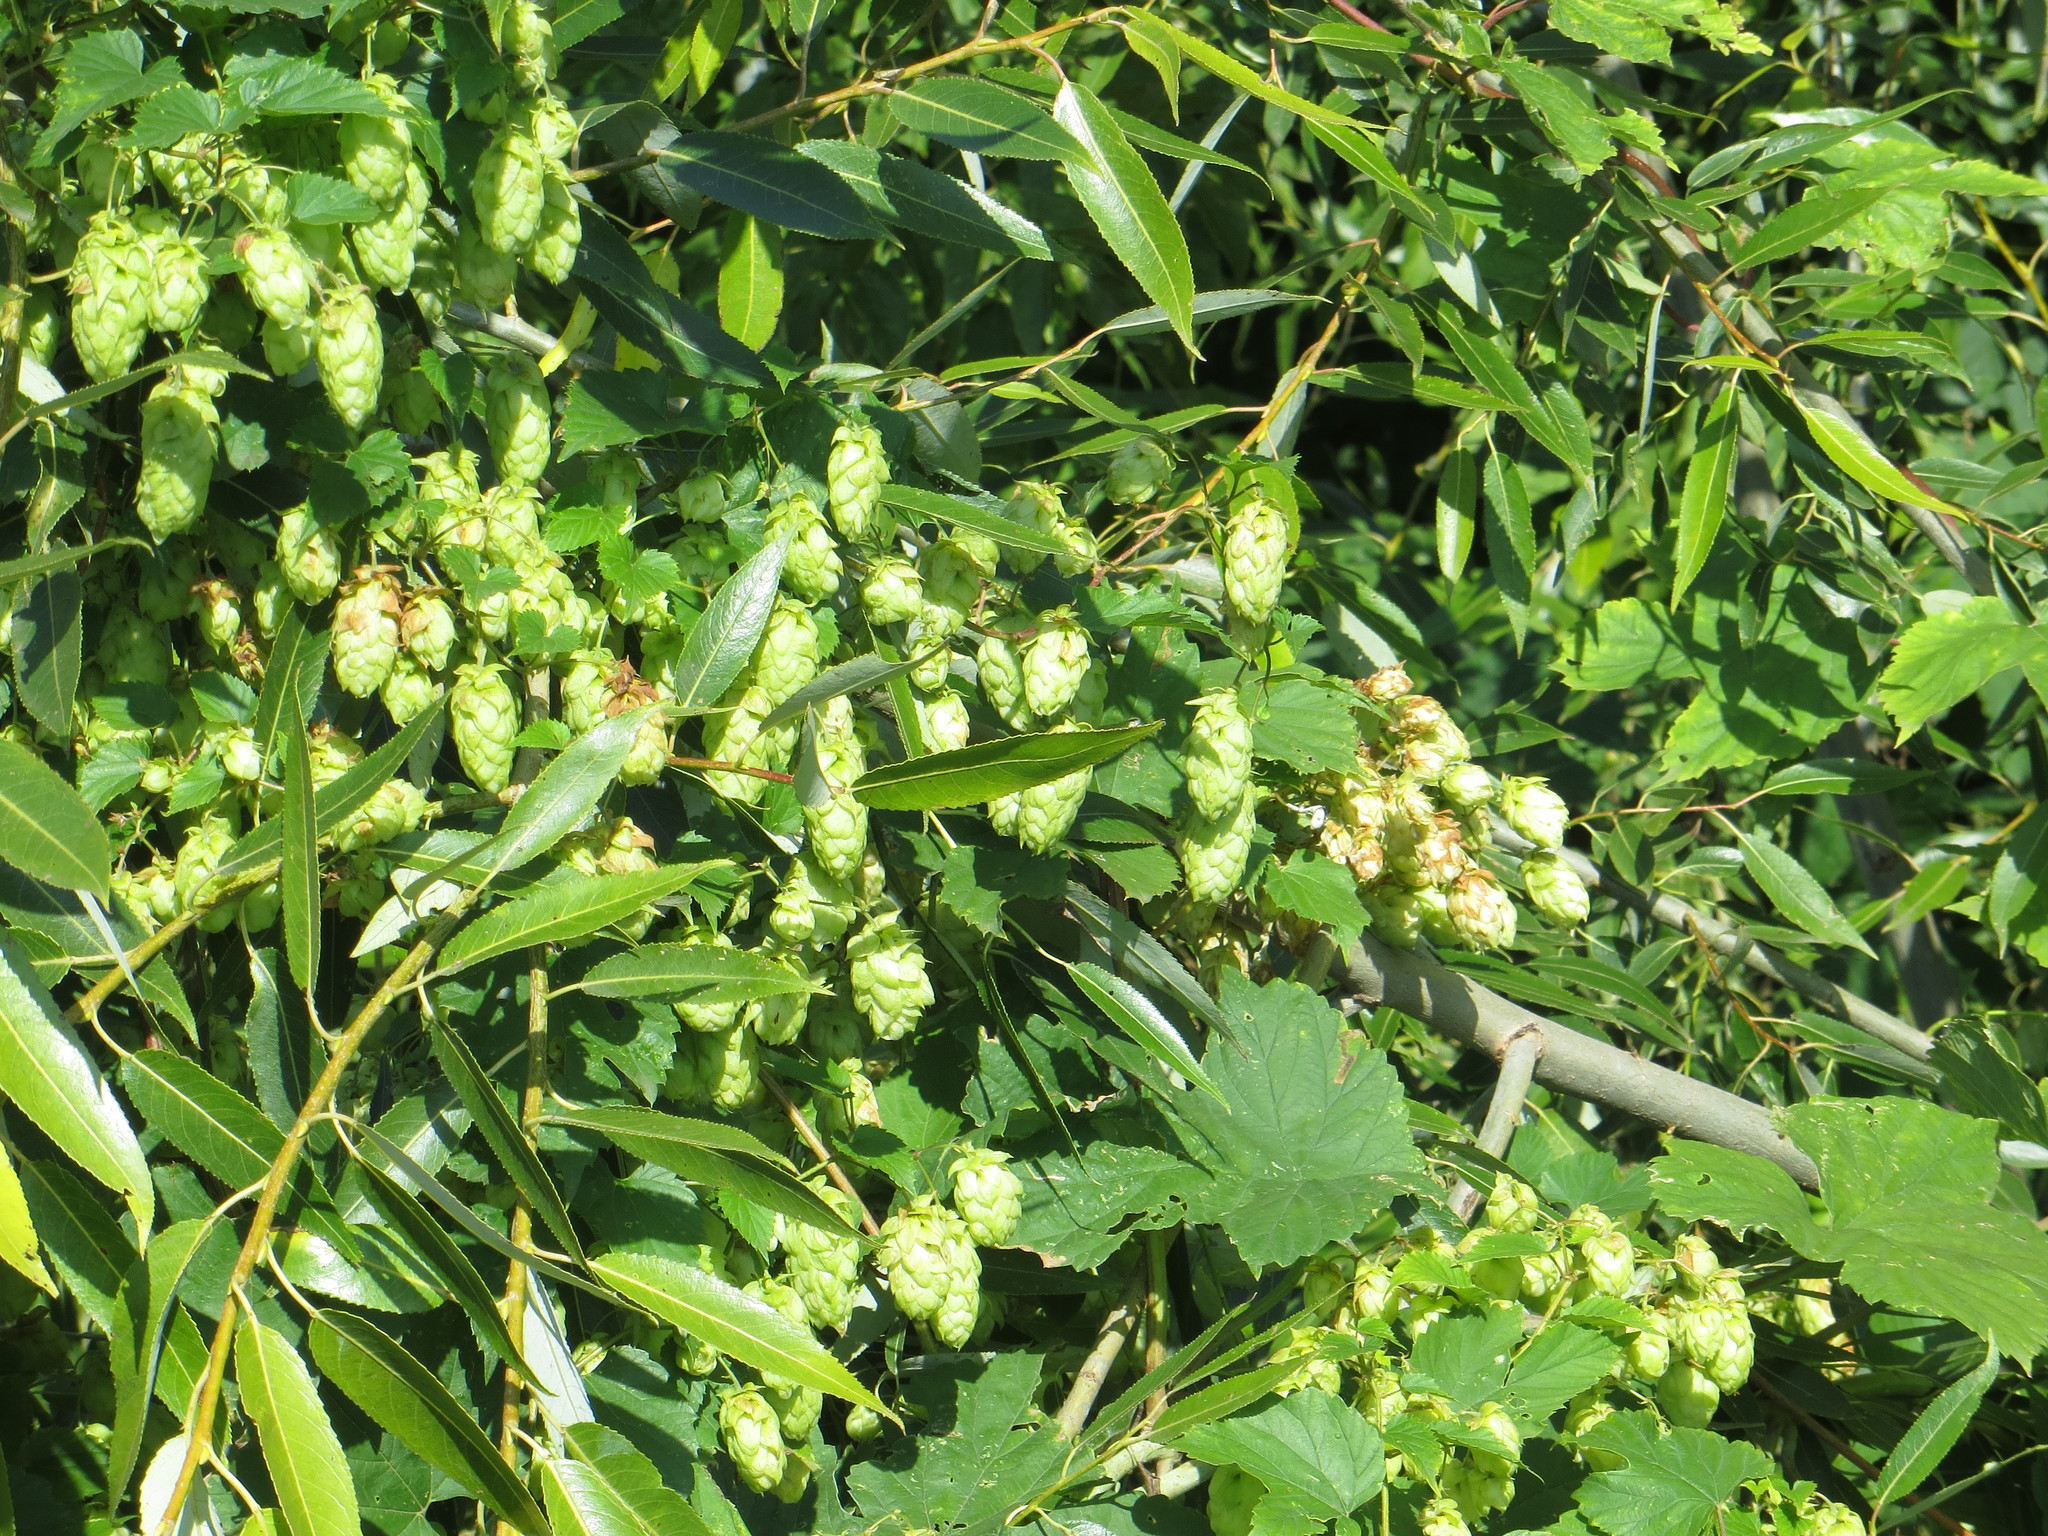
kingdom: Plantae
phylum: Tracheophyta
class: Magnoliopsida
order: Rosales
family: Cannabaceae
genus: Humulus
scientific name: Humulus lupulus
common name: Hop
